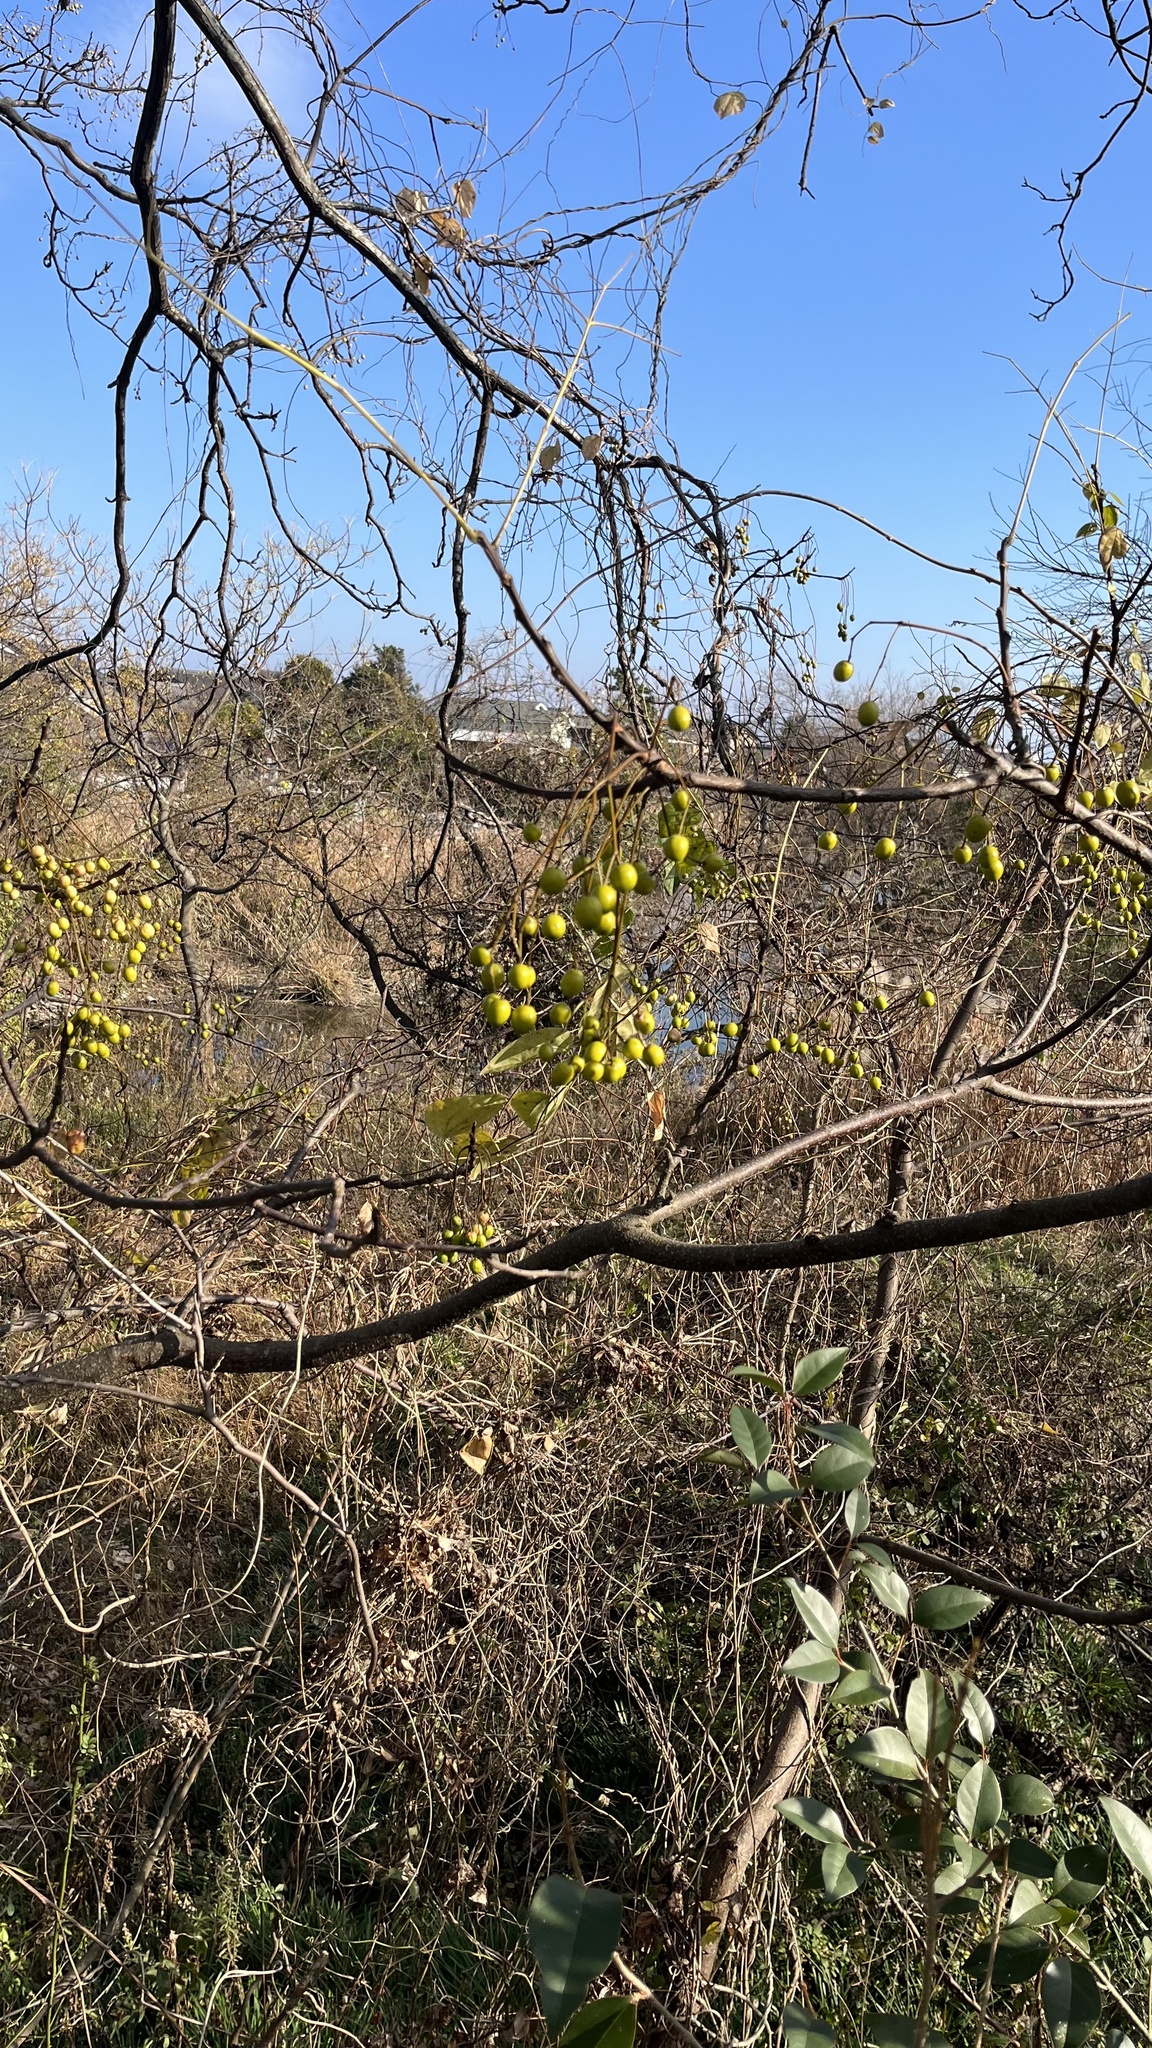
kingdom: Plantae
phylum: Tracheophyta
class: Magnoliopsida
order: Sapindales
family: Meliaceae
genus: Melia
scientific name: Melia azedarach
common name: Chinaberrytree
